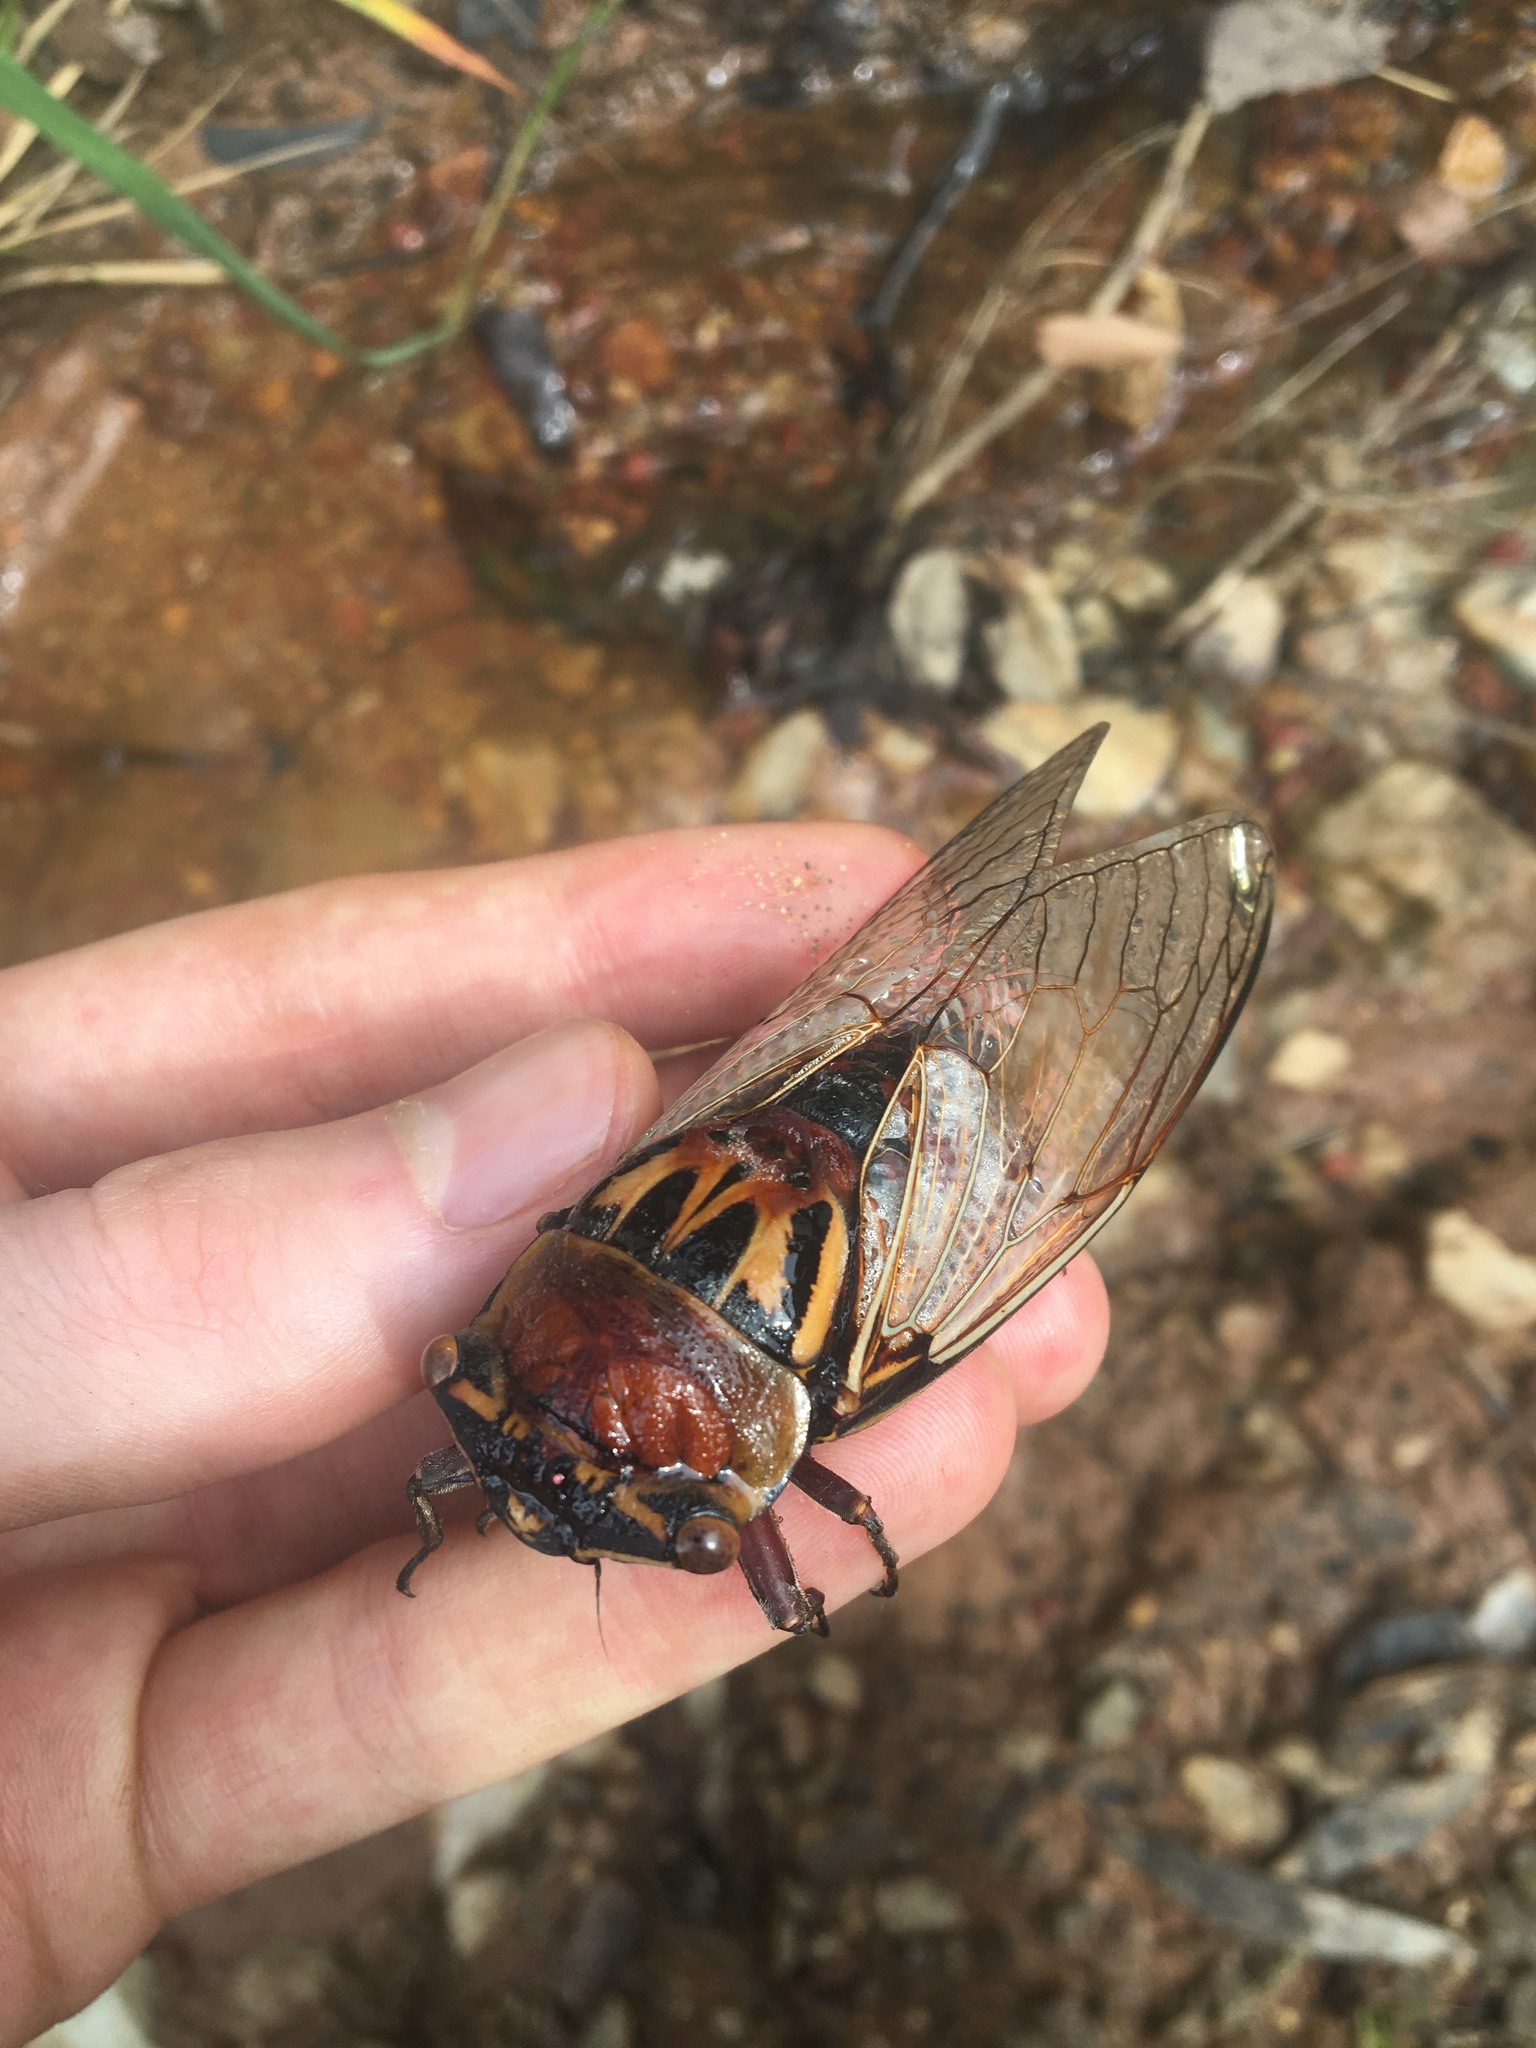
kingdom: Animalia
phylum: Arthropoda
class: Insecta
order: Hemiptera
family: Cicadidae
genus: Thopha
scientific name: Thopha saccata
